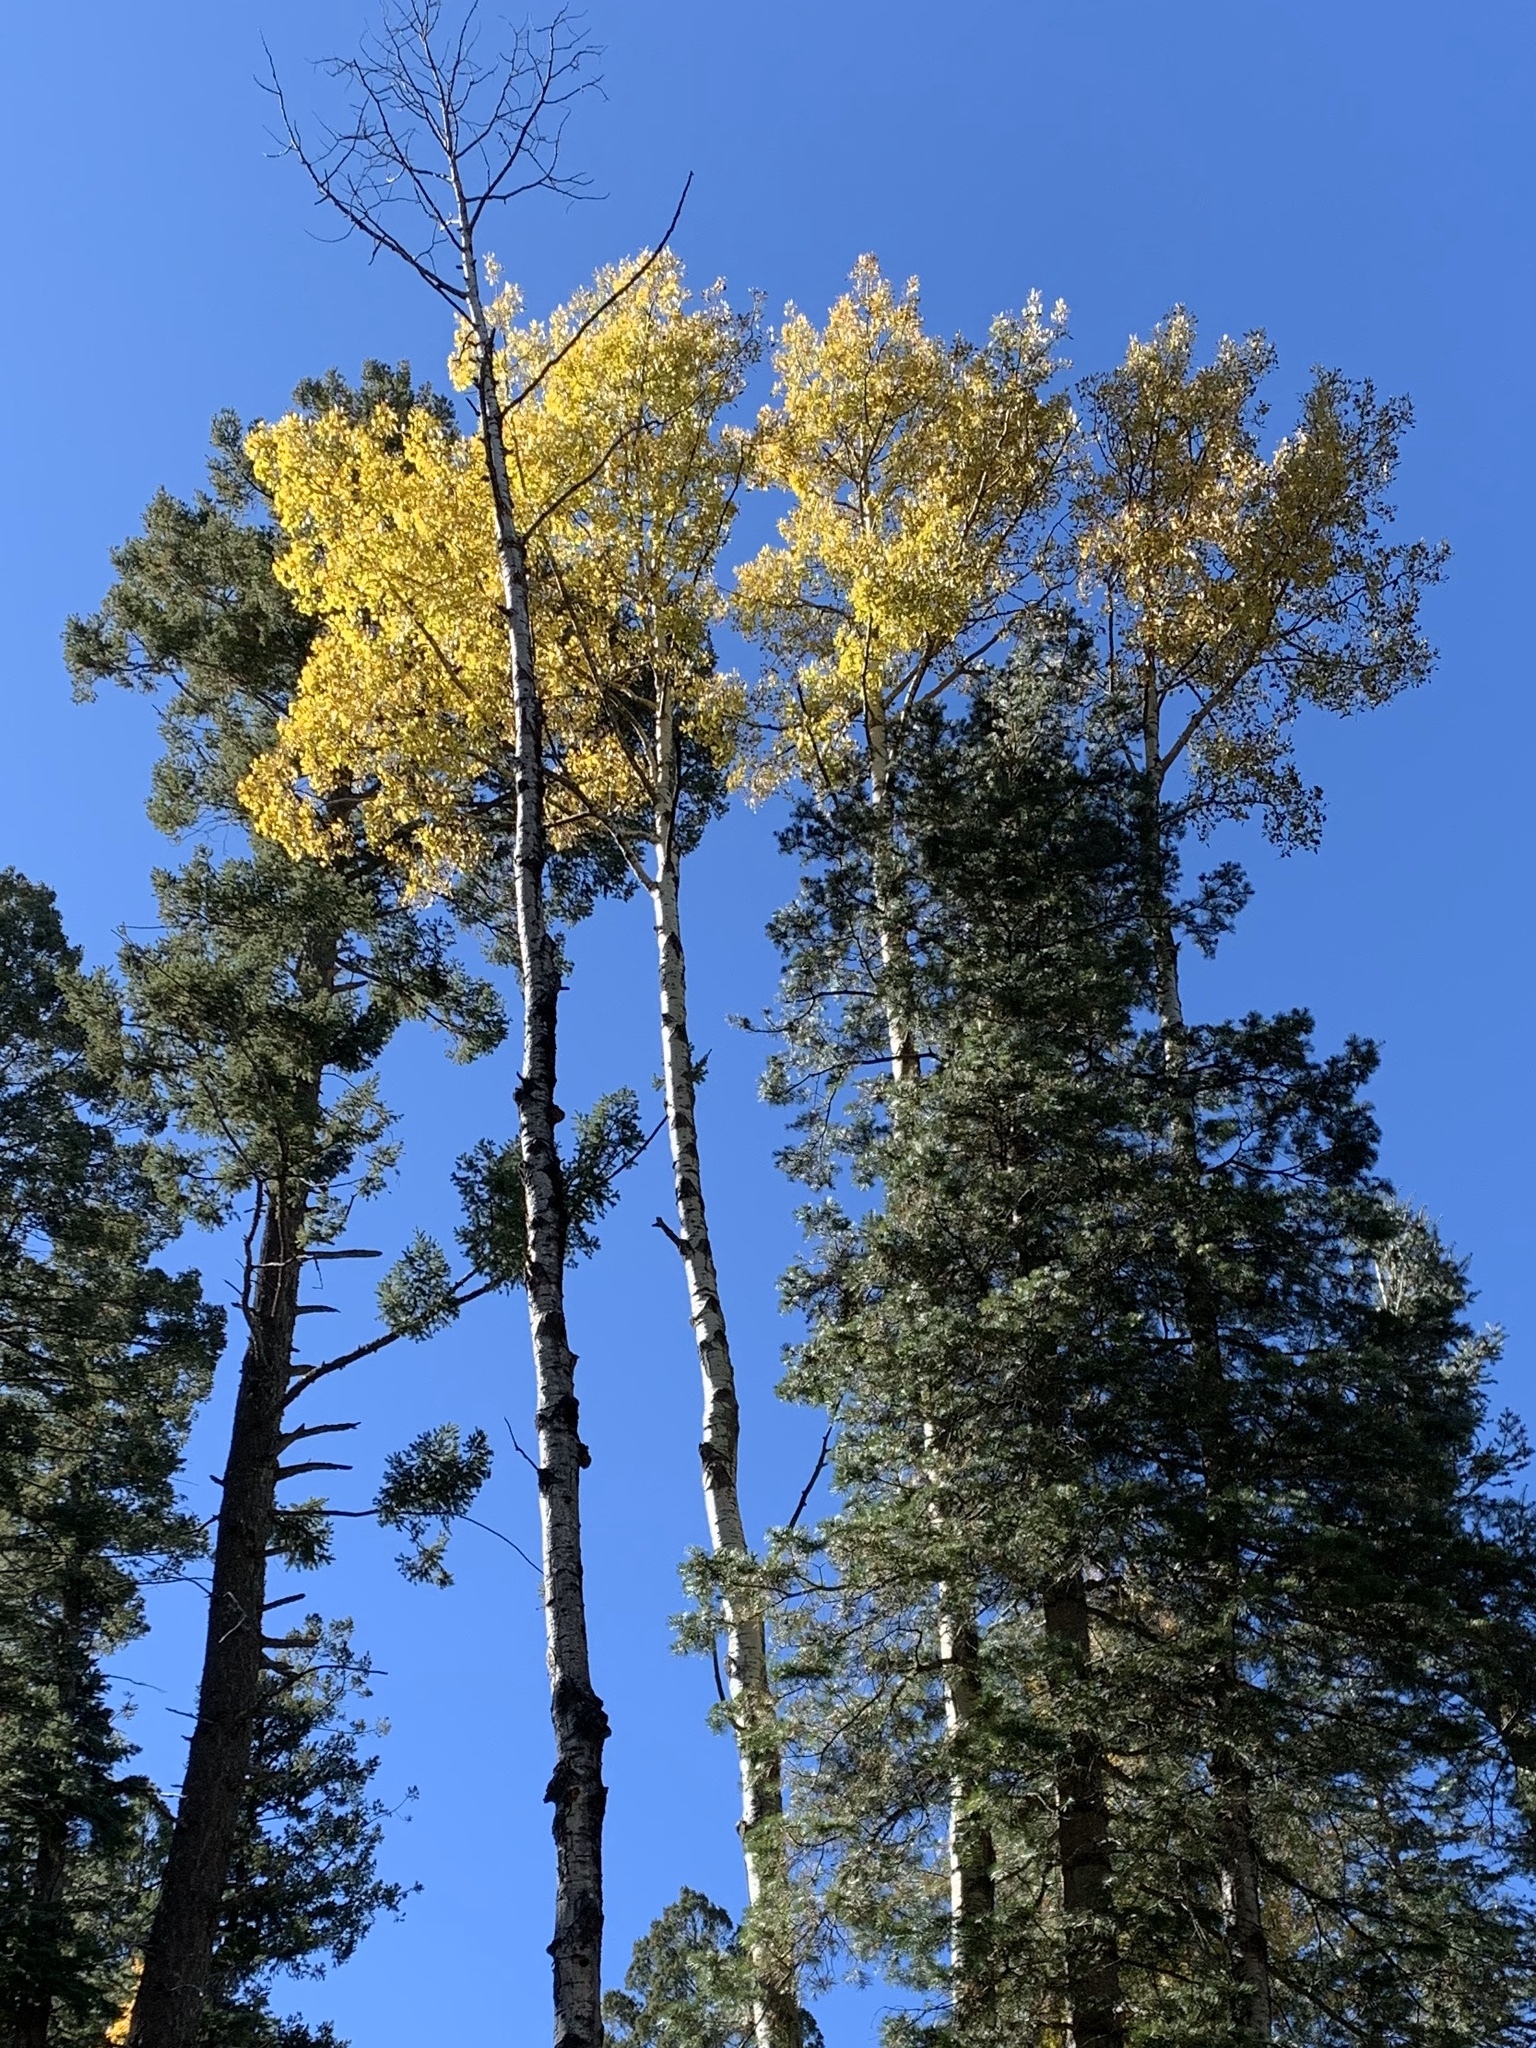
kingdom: Plantae
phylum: Tracheophyta
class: Magnoliopsida
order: Malpighiales
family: Salicaceae
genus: Populus
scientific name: Populus tremuloides
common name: Quaking aspen
